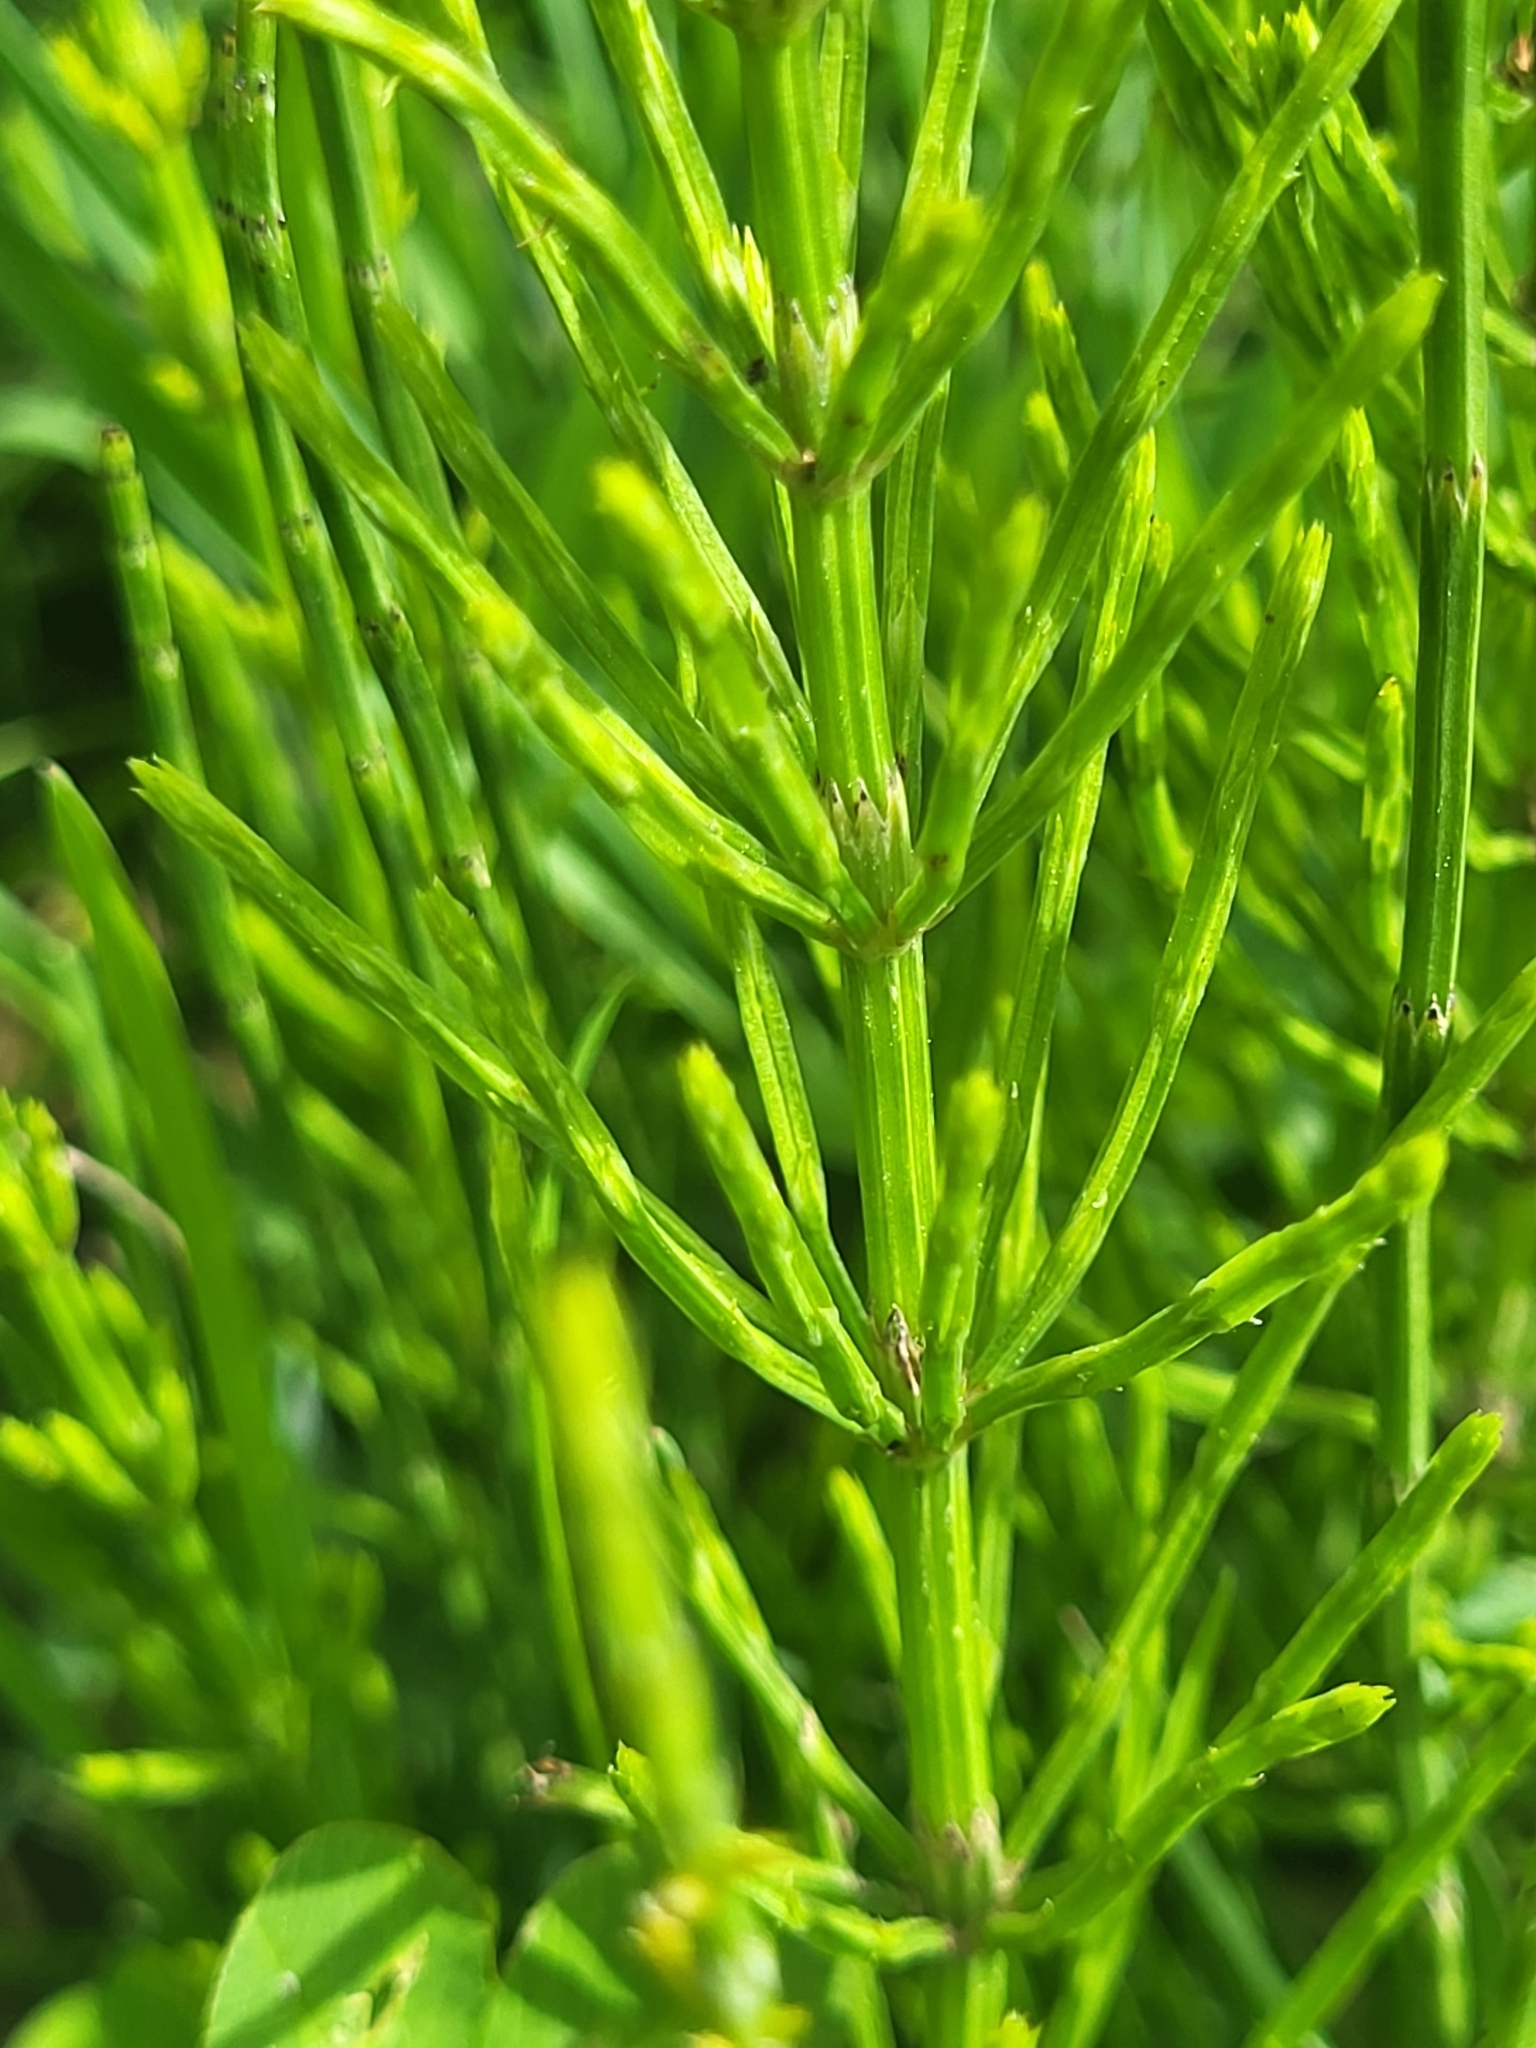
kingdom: Plantae
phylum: Tracheophyta
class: Polypodiopsida
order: Equisetales
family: Equisetaceae
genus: Equisetum
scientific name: Equisetum arvense
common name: Field horsetail
